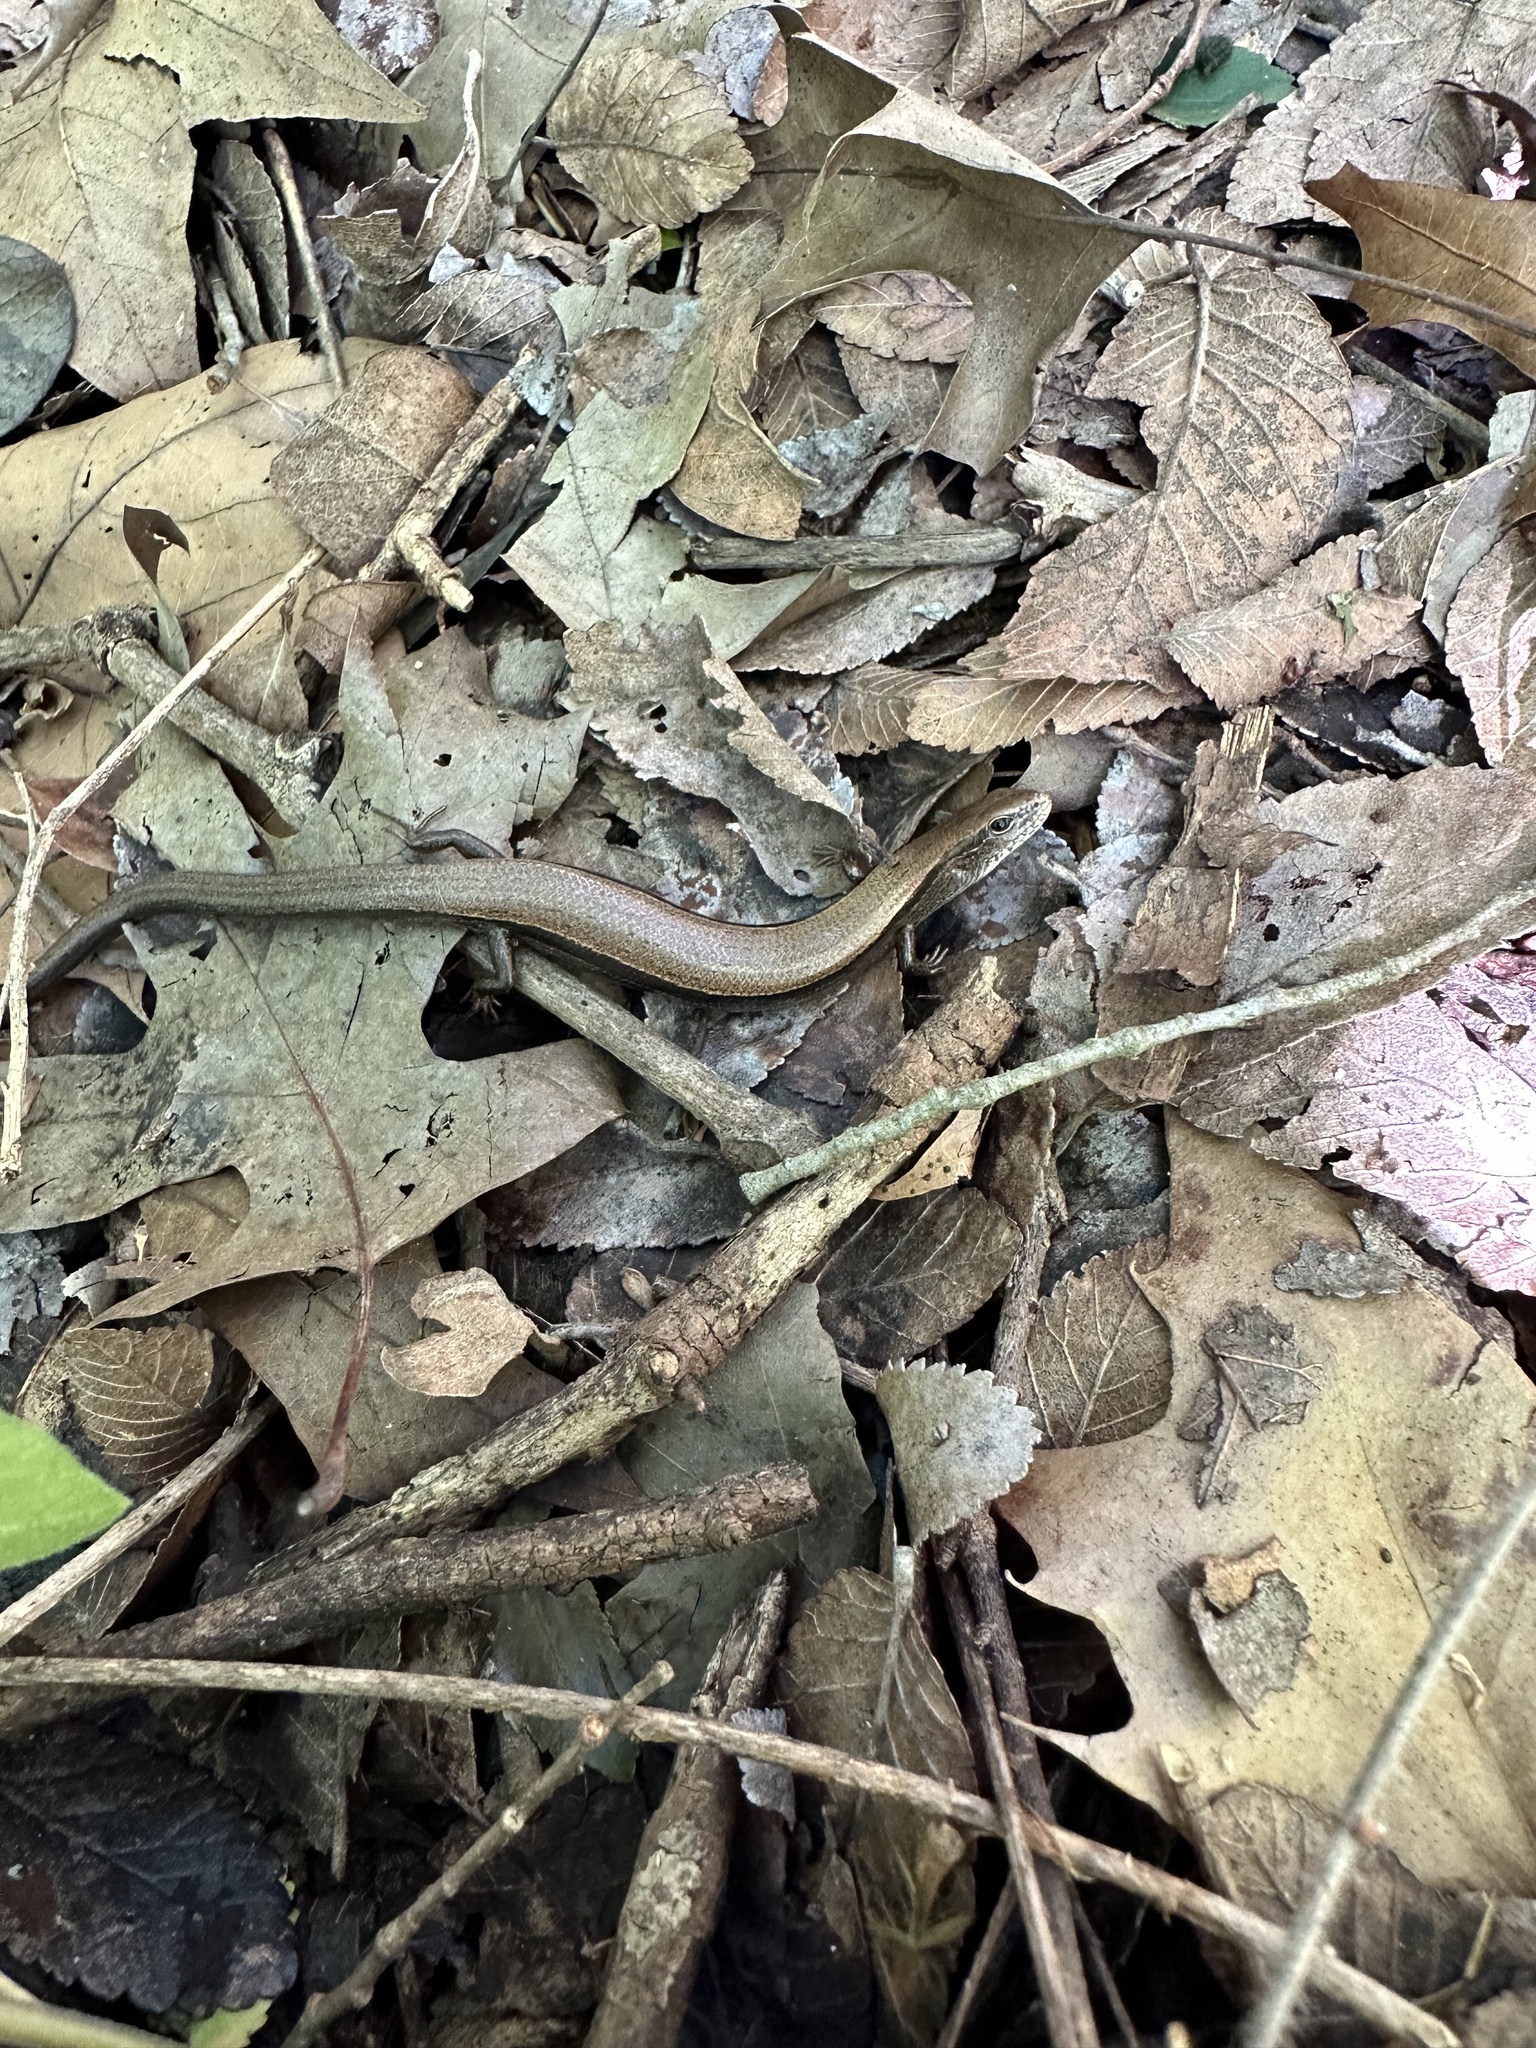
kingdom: Animalia
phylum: Chordata
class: Squamata
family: Scincidae
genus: Scincella
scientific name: Scincella lateralis
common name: Ground skink
